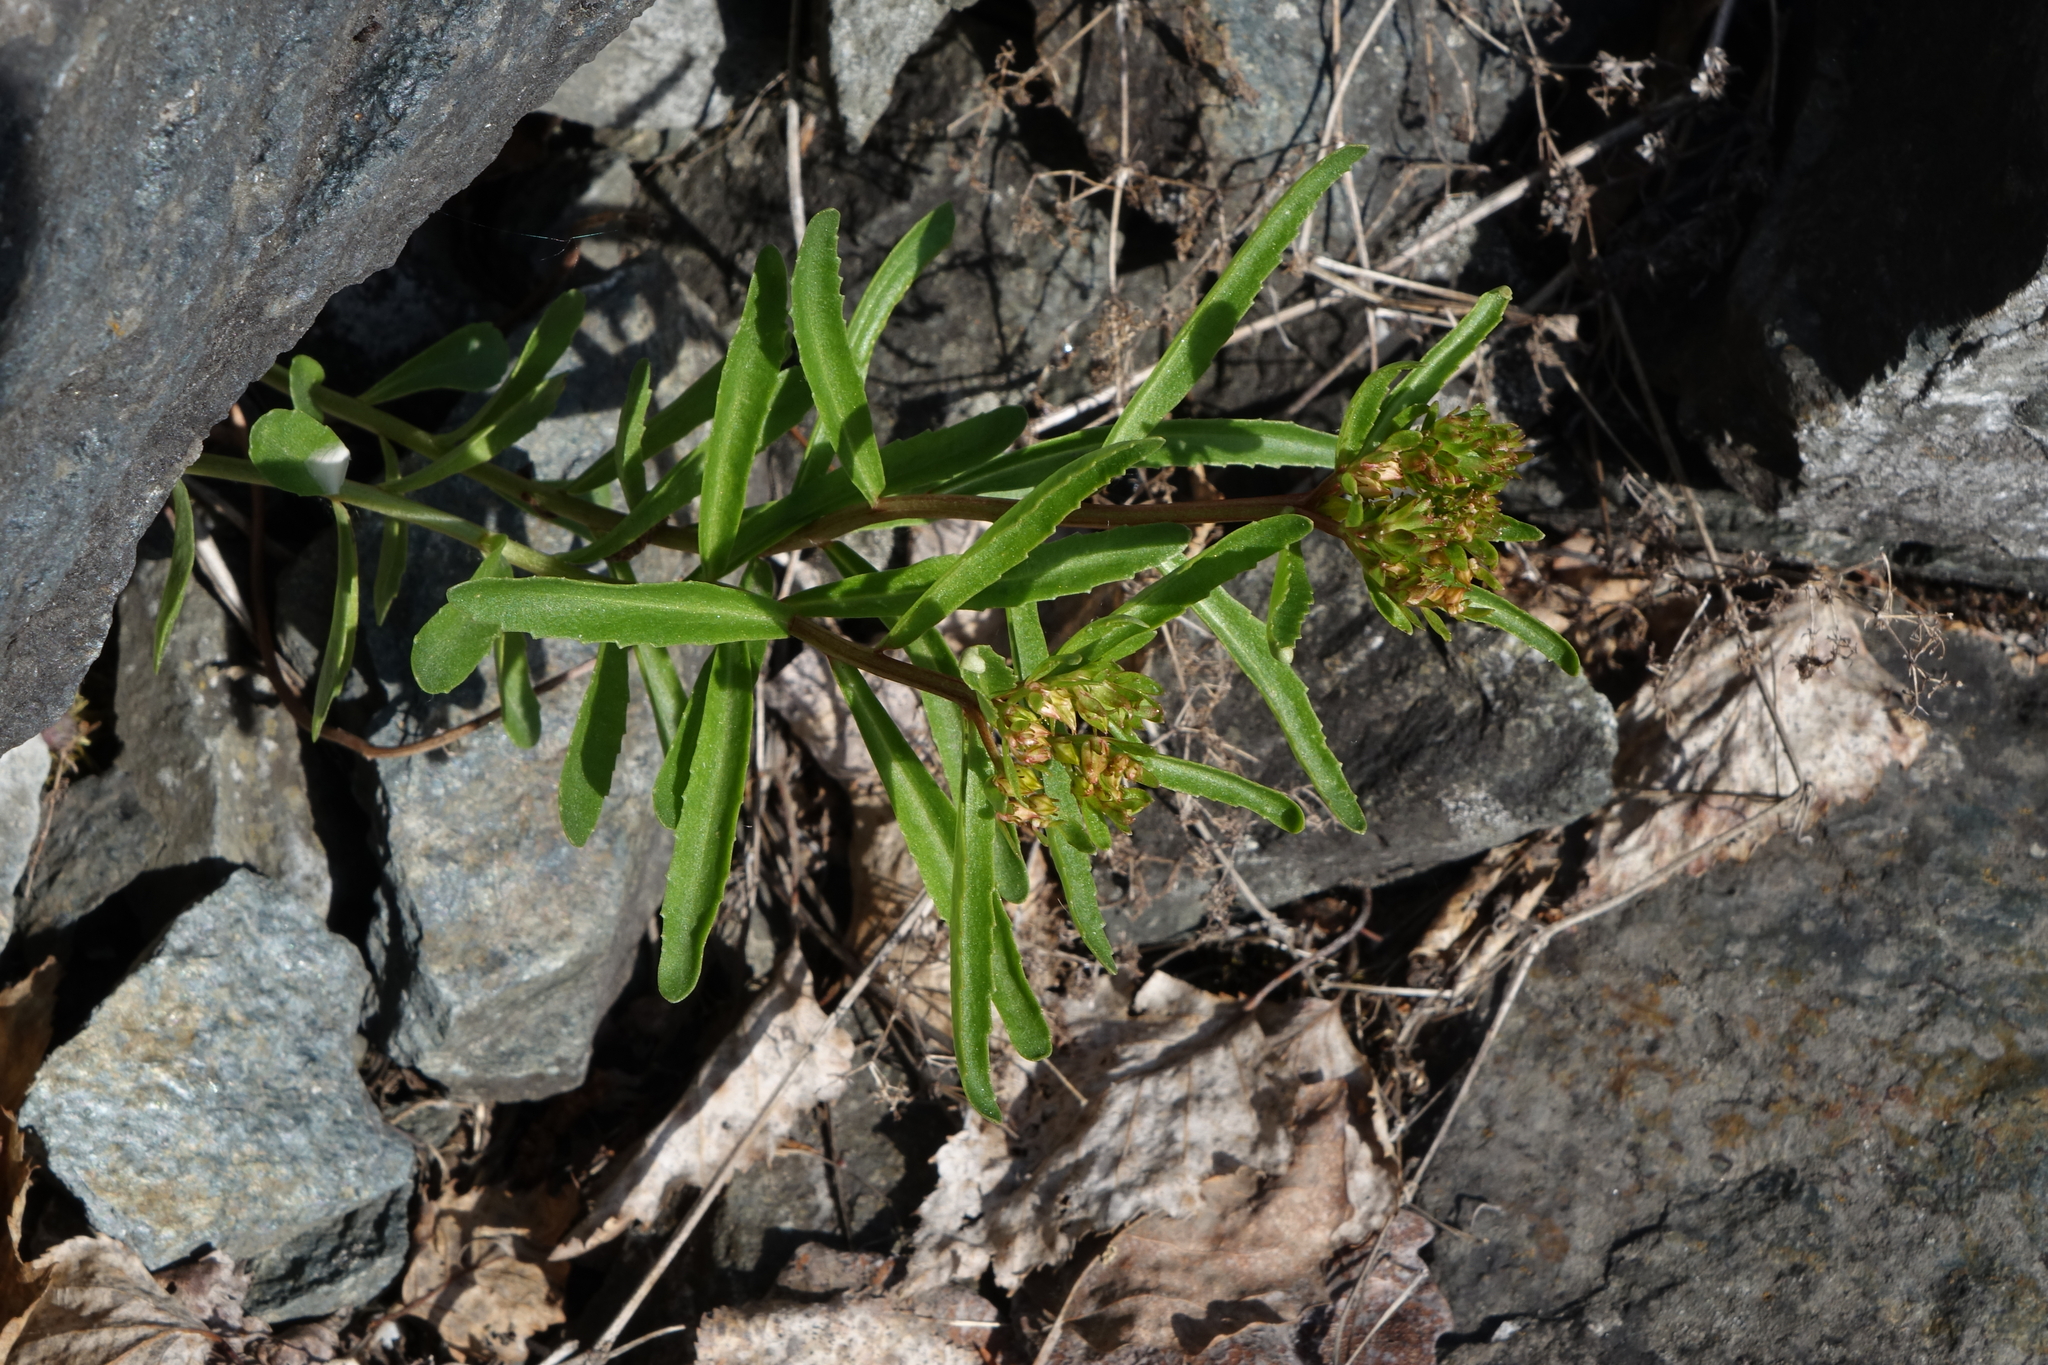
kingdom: Plantae
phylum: Tracheophyta
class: Magnoliopsida
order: Saxifragales
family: Crassulaceae
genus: Phedimus
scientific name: Phedimus aizoon
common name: Orpin aizoon
